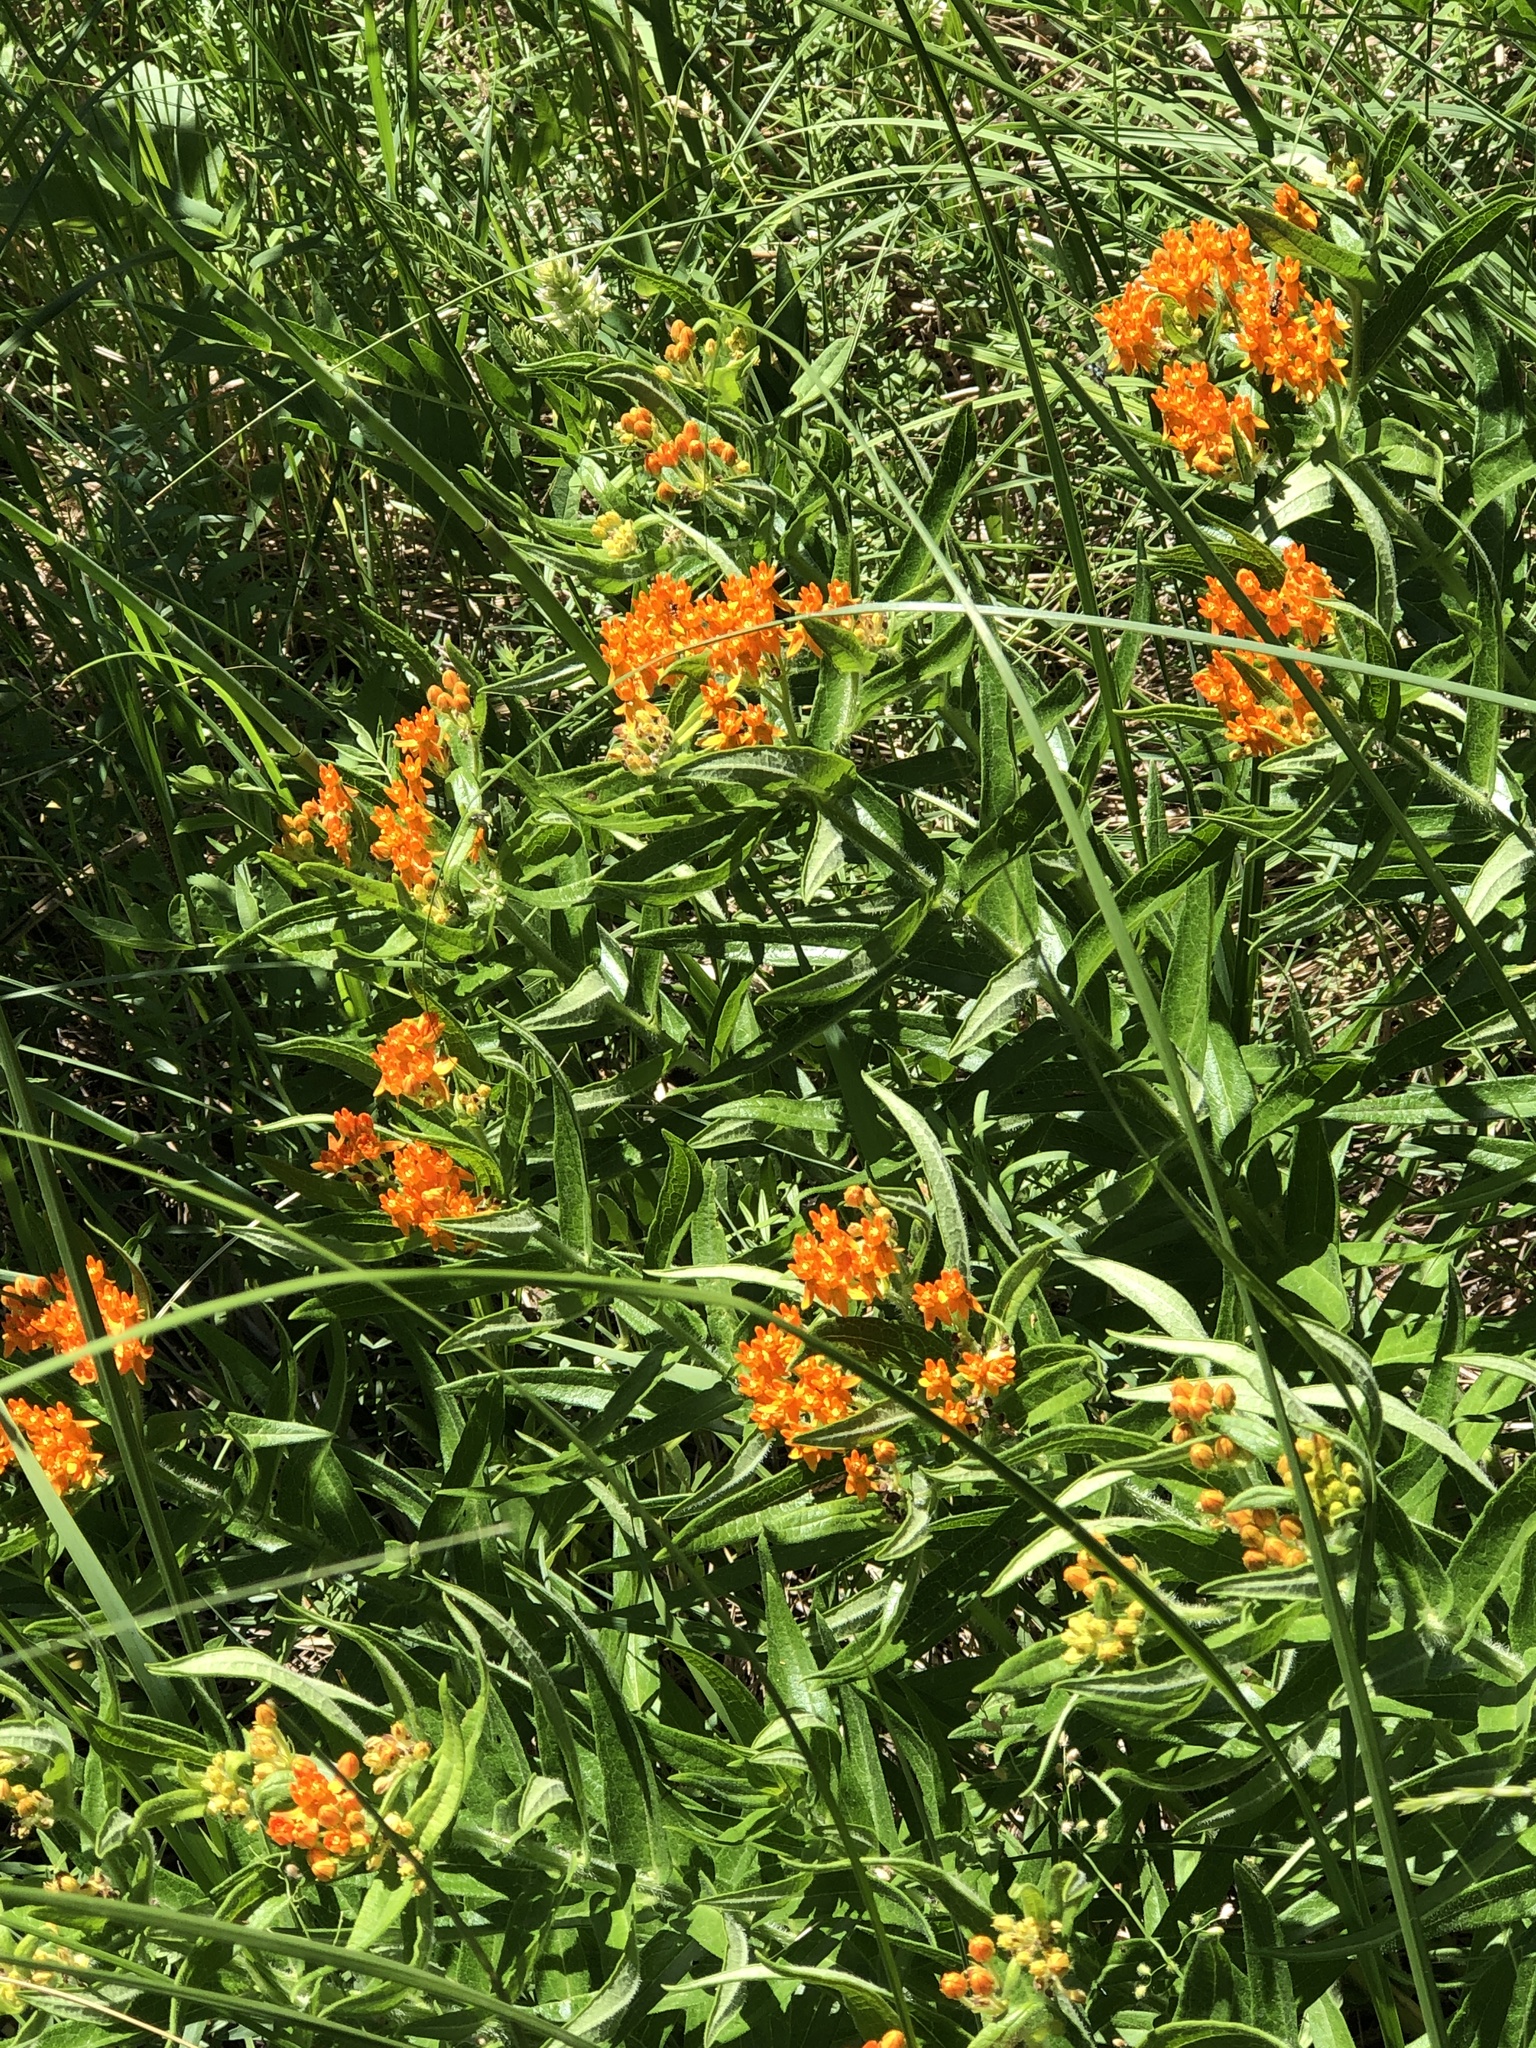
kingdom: Plantae
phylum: Tracheophyta
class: Magnoliopsida
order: Gentianales
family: Apocynaceae
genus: Asclepias
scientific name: Asclepias tuberosa
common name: Butterfly milkweed
